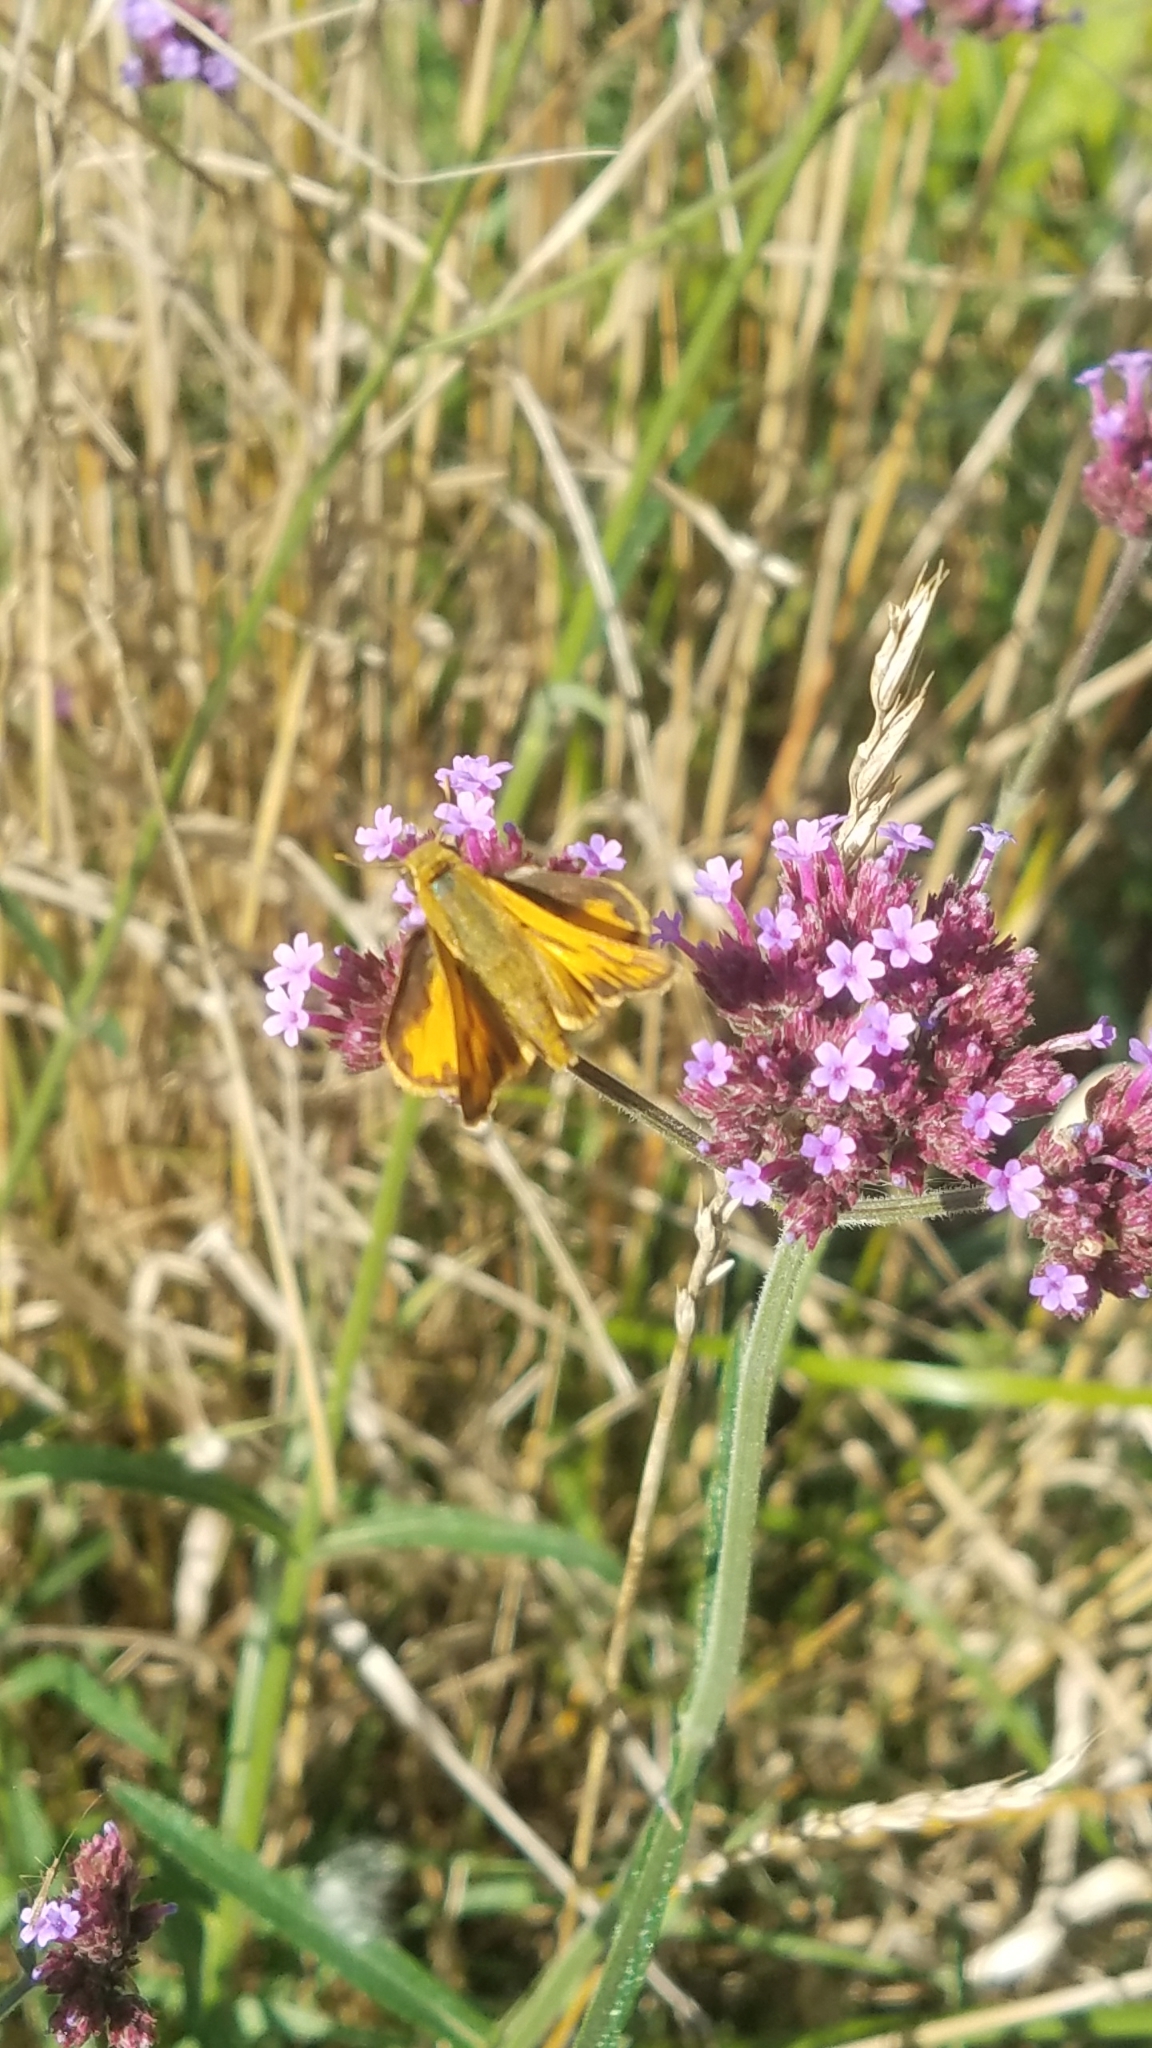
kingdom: Animalia
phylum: Arthropoda
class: Insecta
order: Lepidoptera
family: Hesperiidae
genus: Hylephila
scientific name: Hylephila phyleus
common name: Fiery skipper
